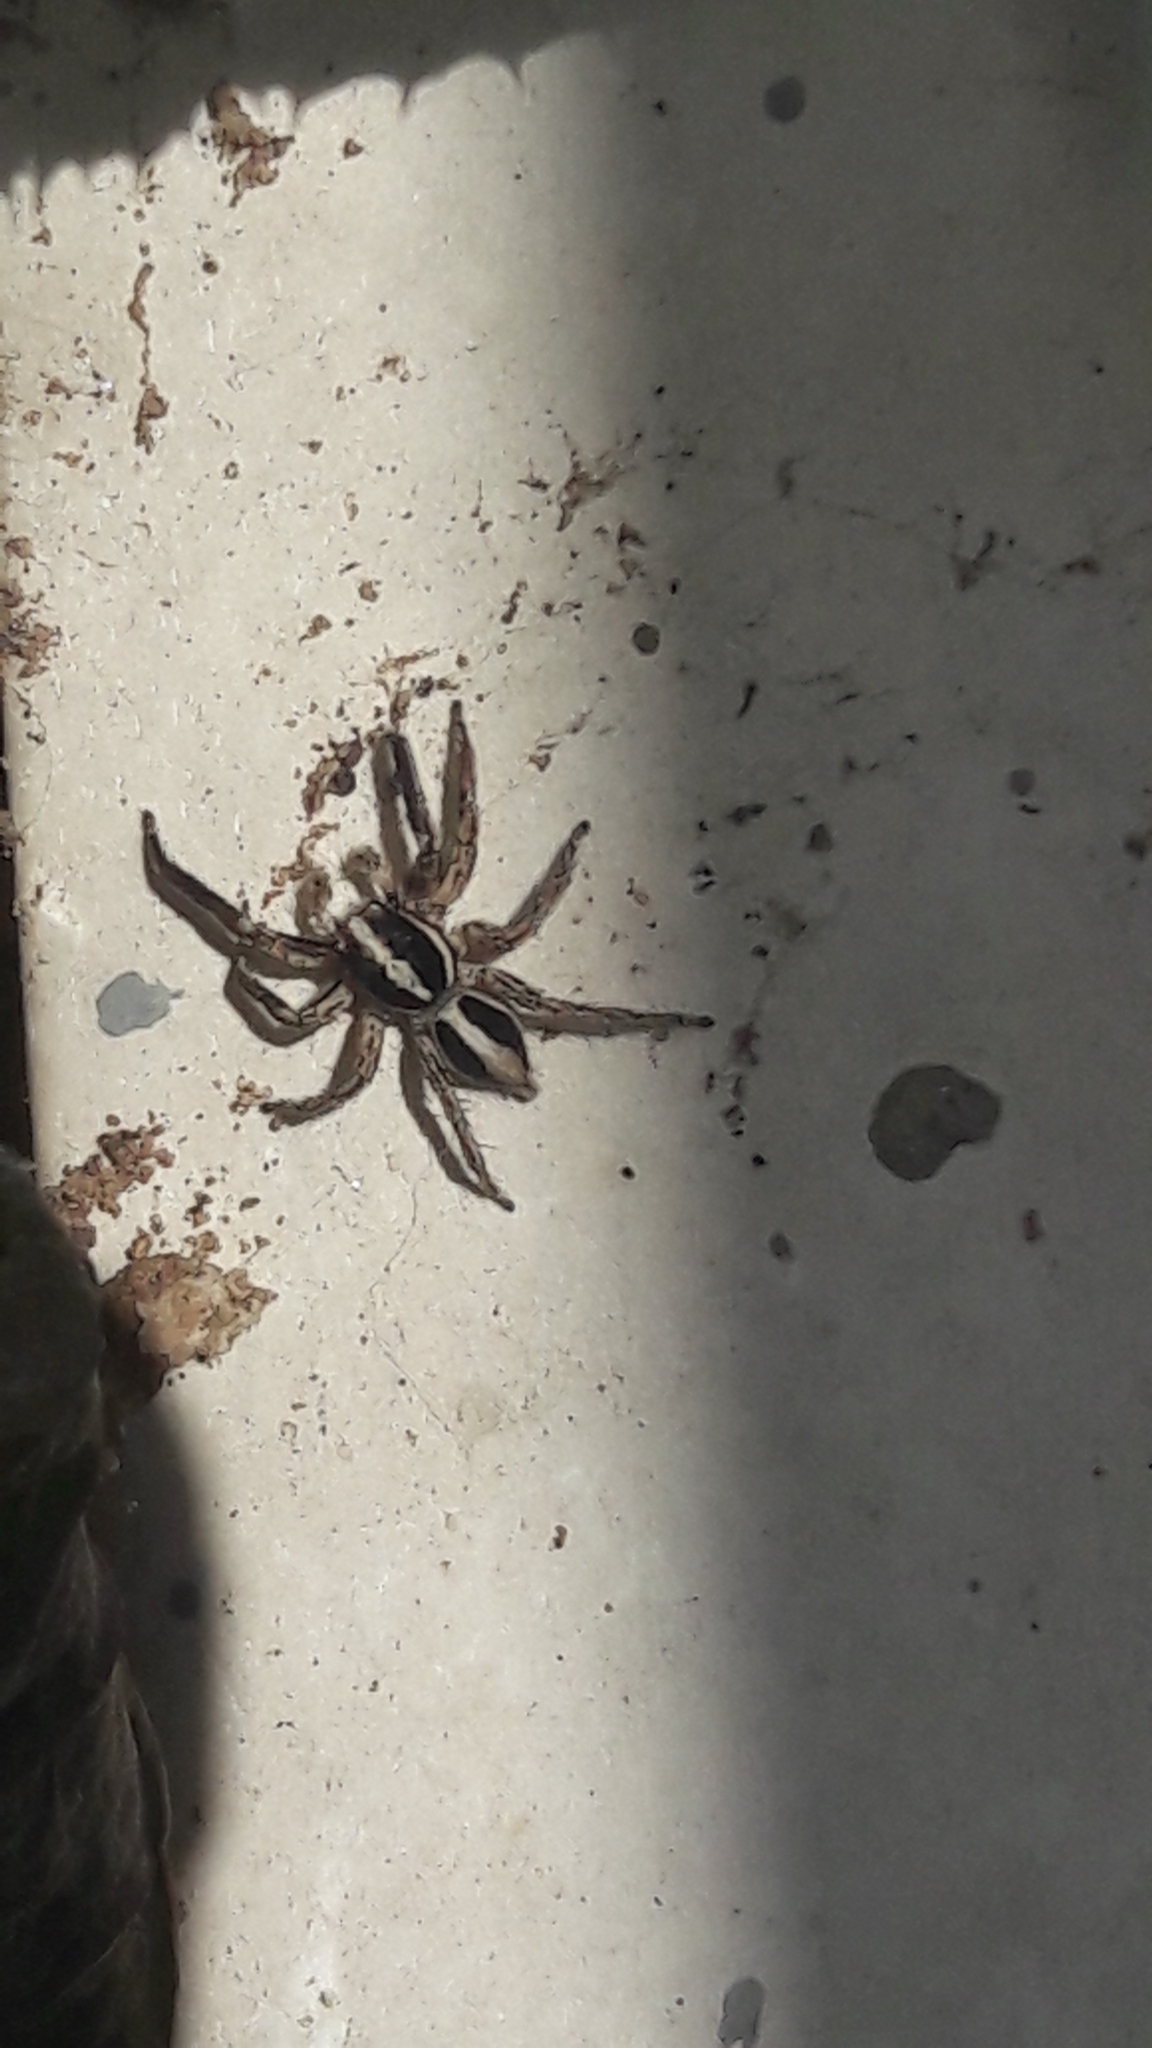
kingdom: Animalia
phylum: Arthropoda
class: Arachnida
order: Araneae
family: Salticidae
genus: Plexippus
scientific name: Plexippus paykulli
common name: Pantropical jumper
